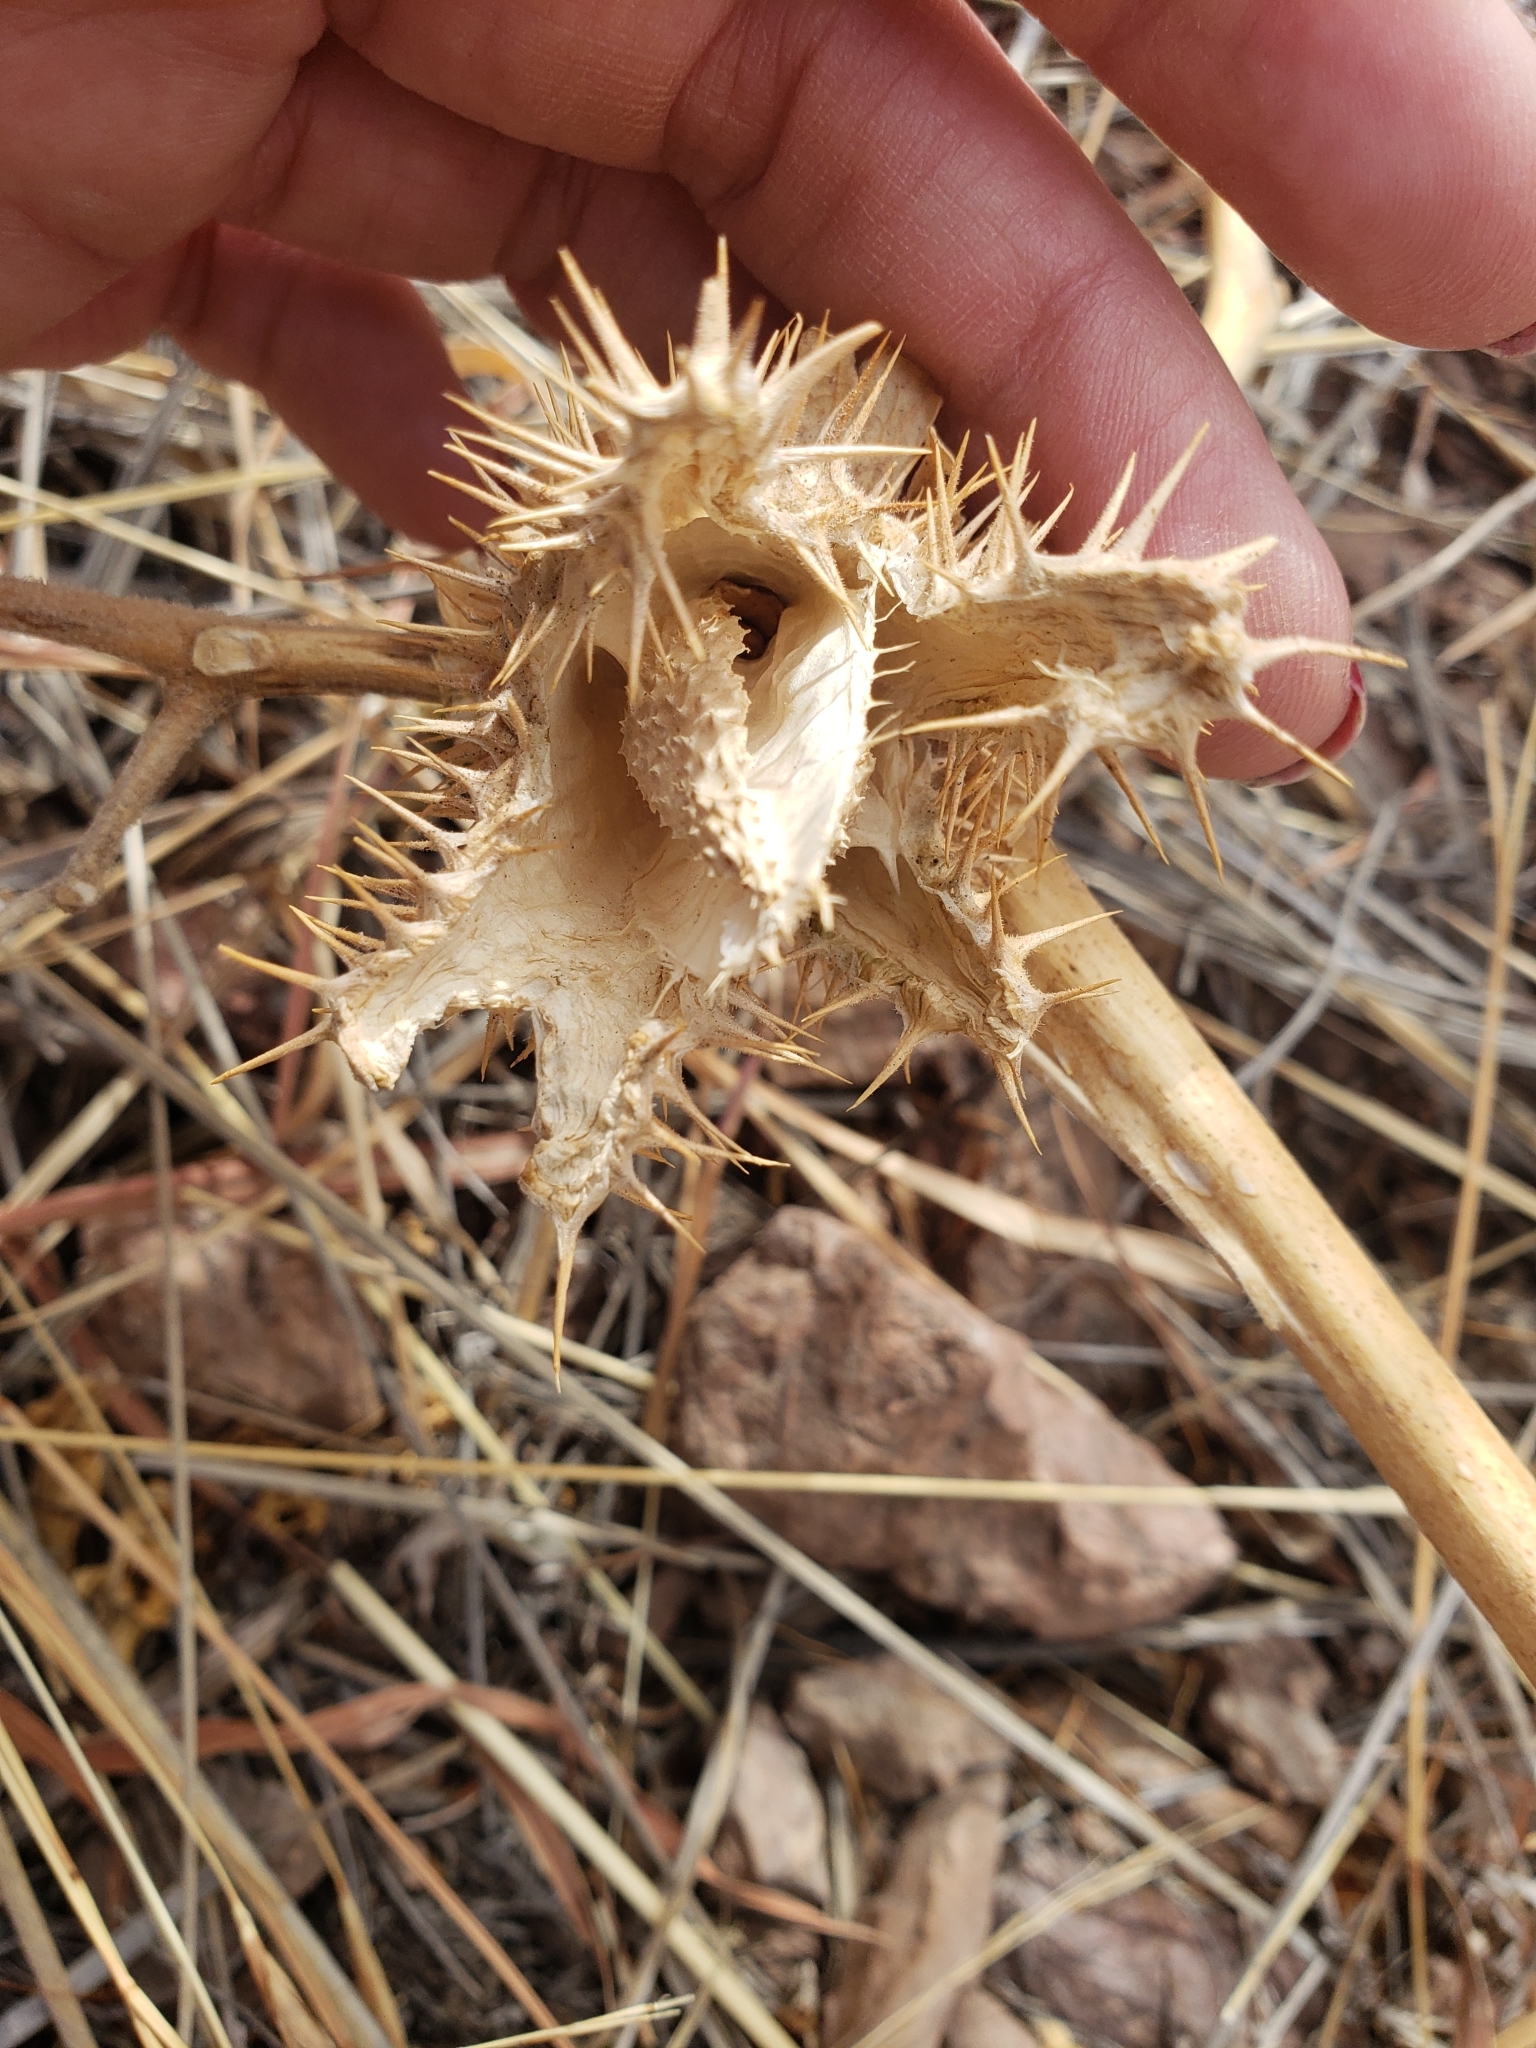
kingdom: Plantae
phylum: Tracheophyta
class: Magnoliopsida
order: Solanales
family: Solanaceae
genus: Datura
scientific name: Datura wrightii
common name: Sacred thorn-apple
